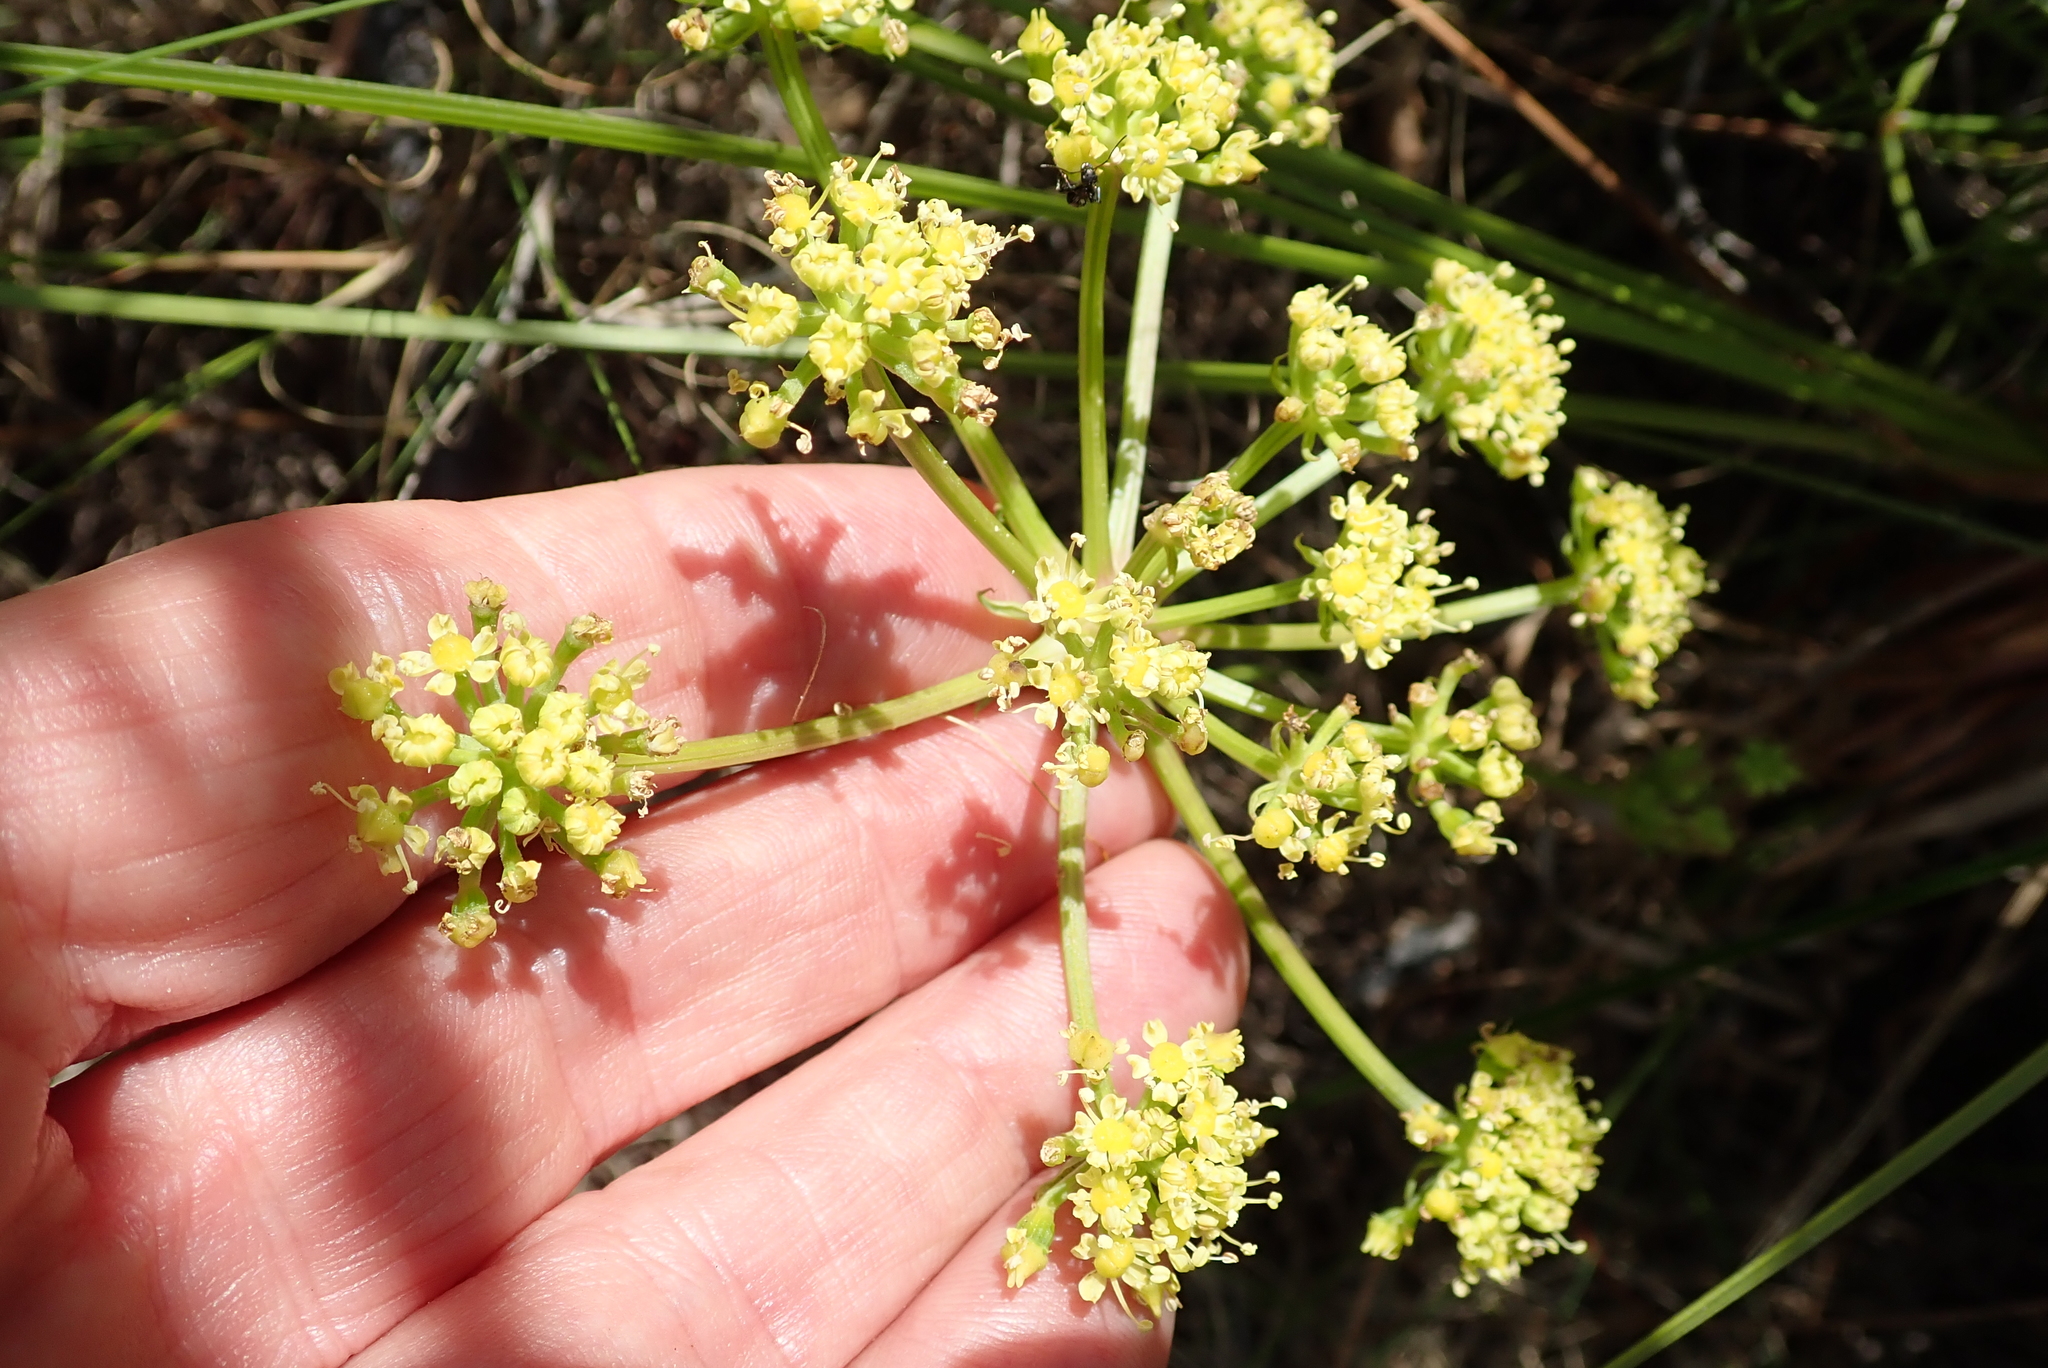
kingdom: Plantae
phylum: Tracheophyta
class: Magnoliopsida
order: Apiales
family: Apiaceae
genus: Nanobubon
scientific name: Nanobubon capillaceum
